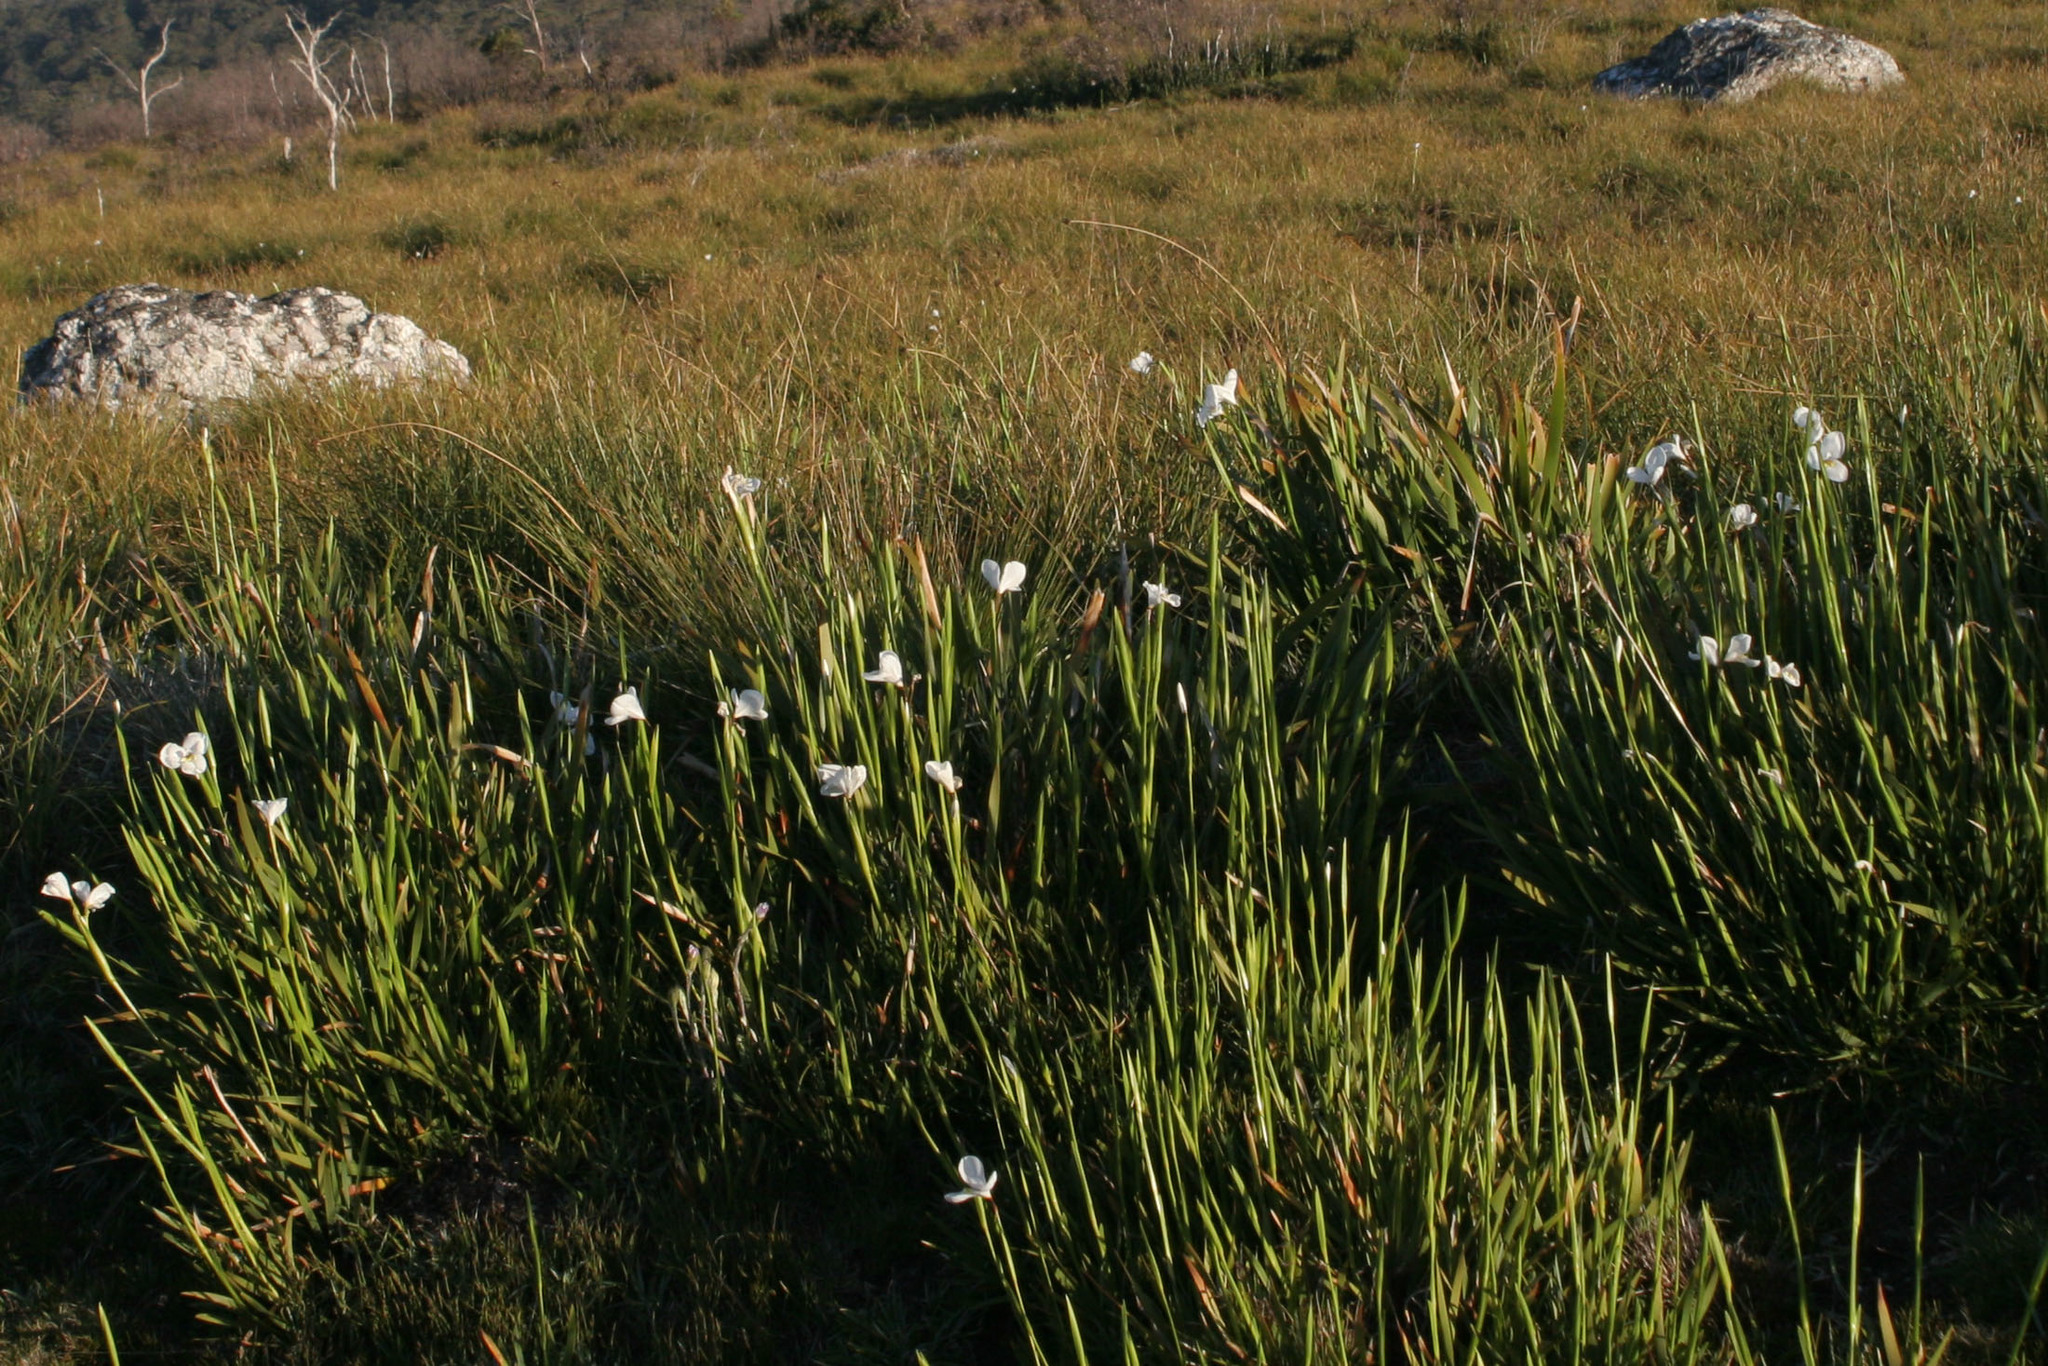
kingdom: Plantae
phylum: Tracheophyta
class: Liliopsida
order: Asparagales
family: Iridaceae
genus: Diplarrena
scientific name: Diplarrena latifolia
